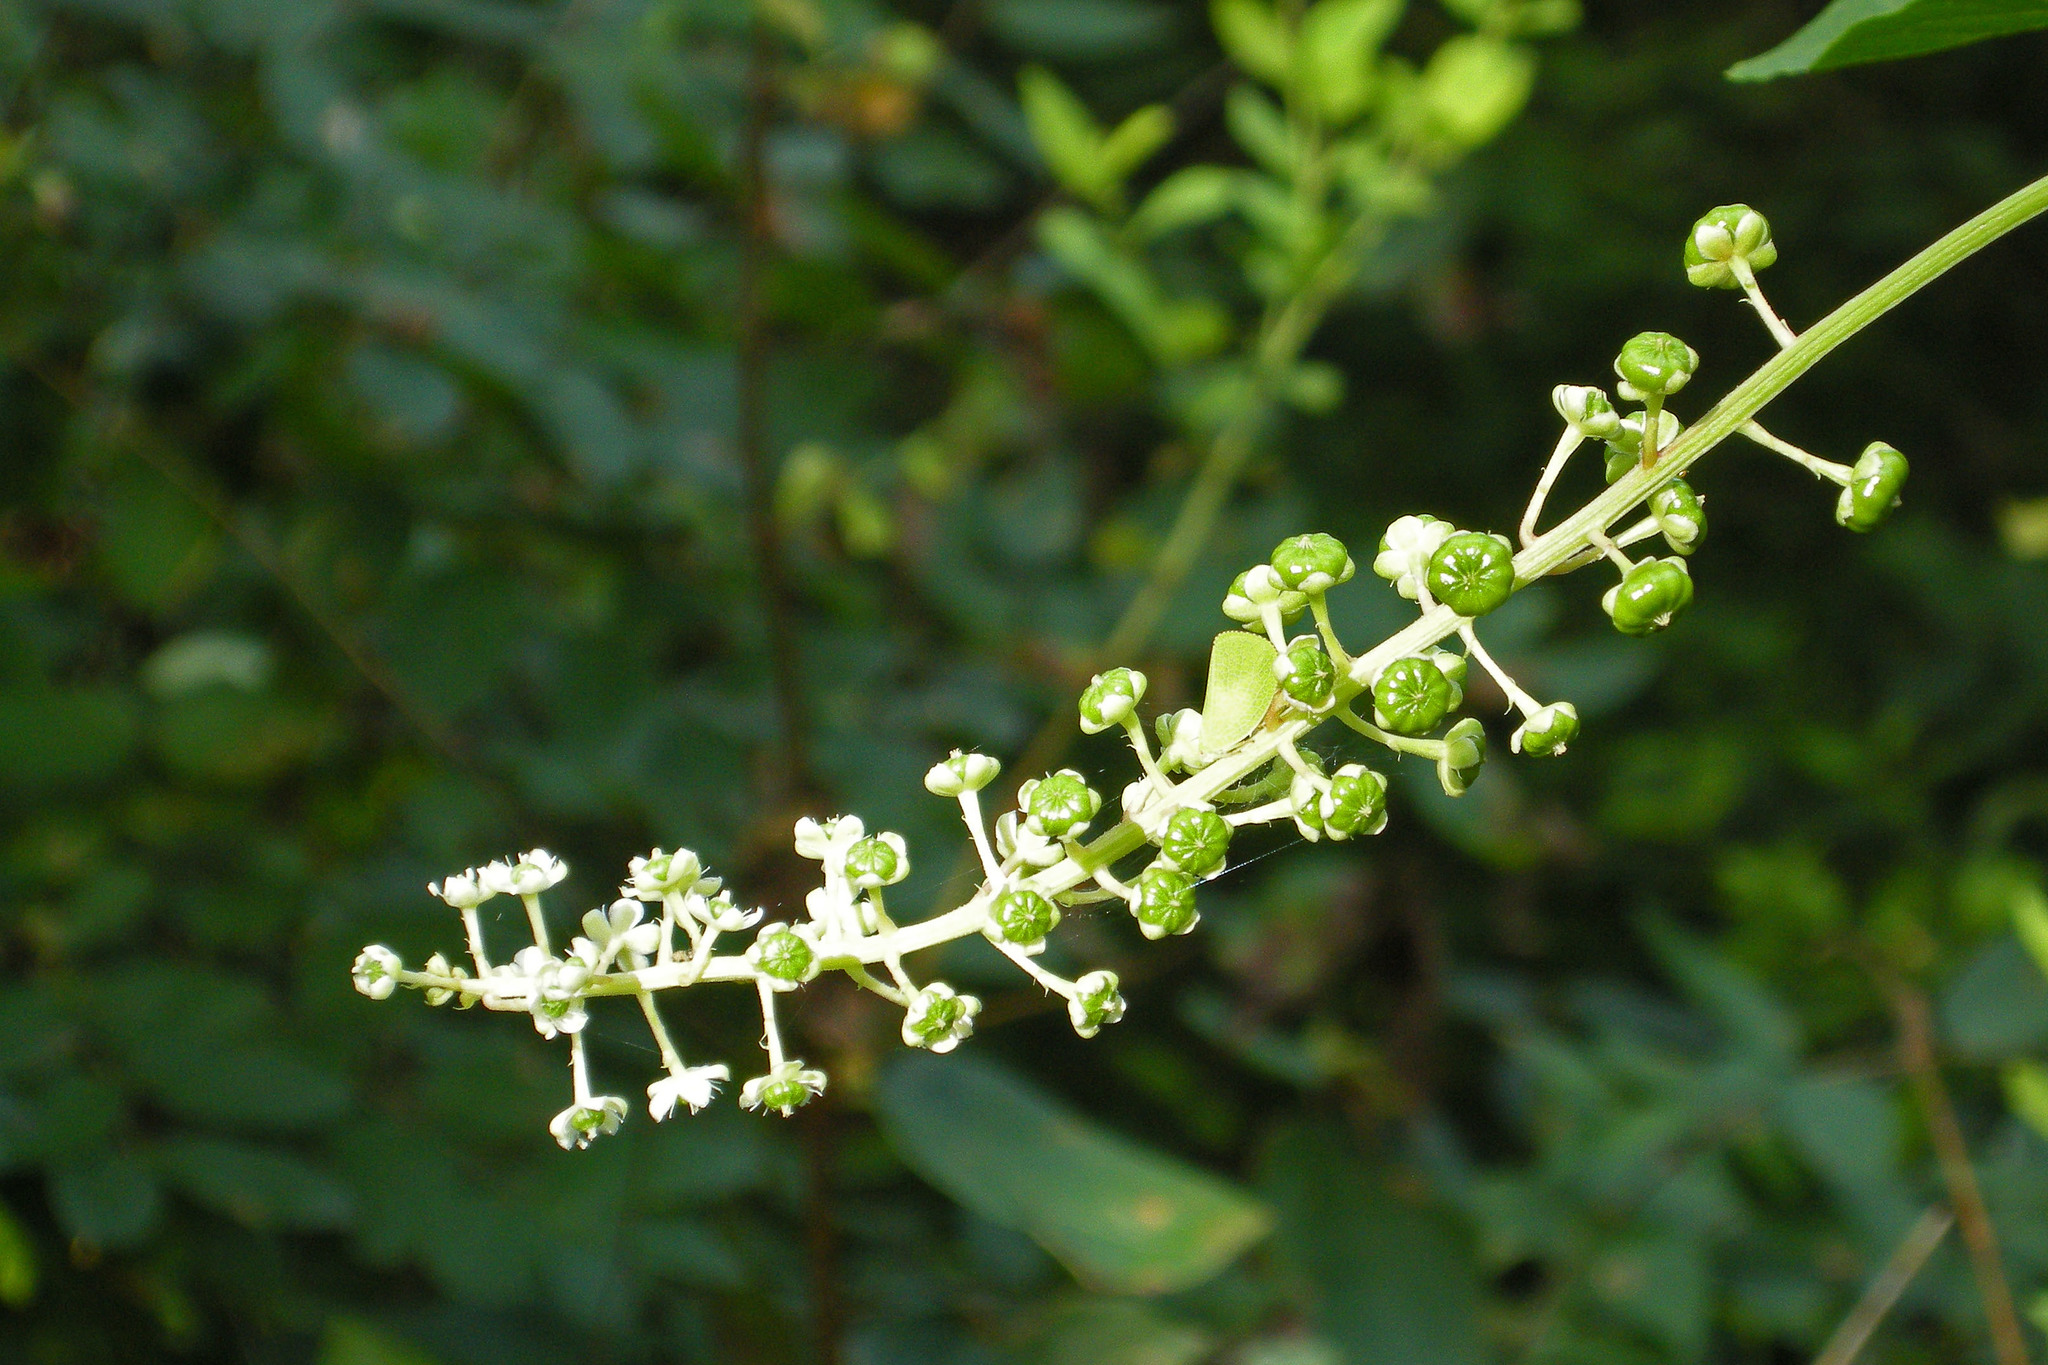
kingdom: Plantae
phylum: Tracheophyta
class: Magnoliopsida
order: Caryophyllales
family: Phytolaccaceae
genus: Phytolacca
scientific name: Phytolacca americana
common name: American pokeweed
